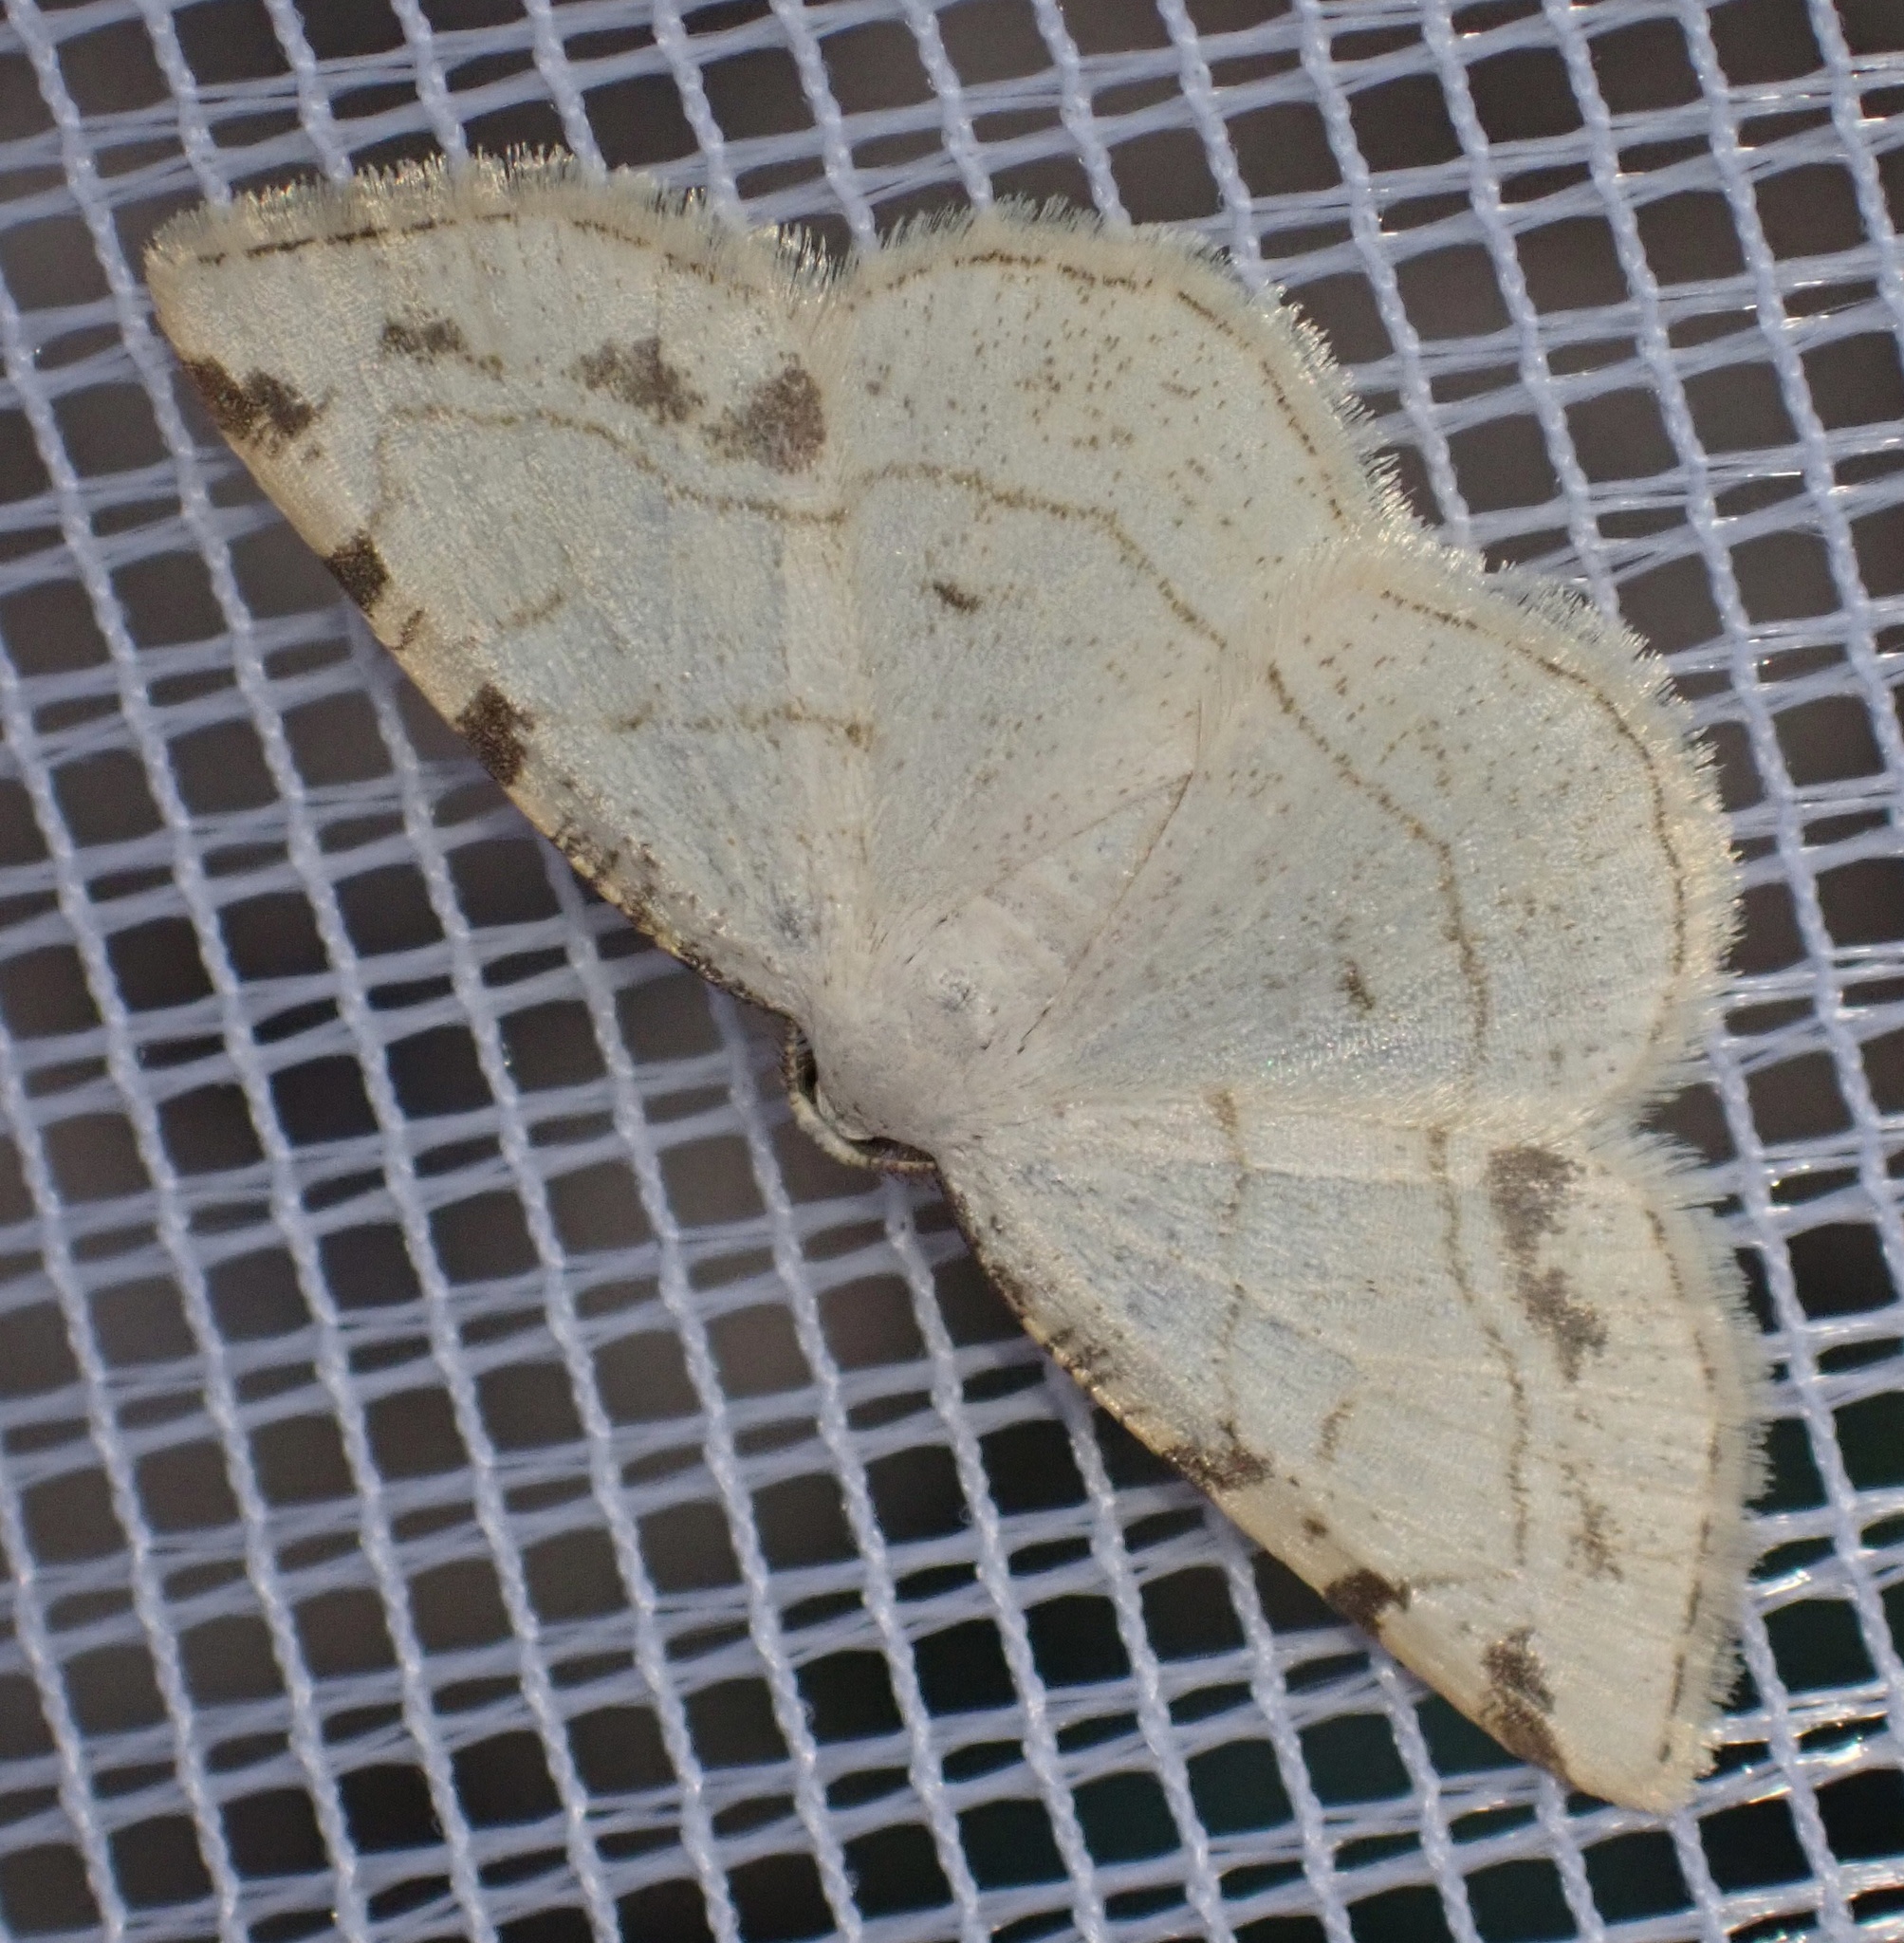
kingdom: Animalia
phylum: Arthropoda
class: Insecta
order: Lepidoptera
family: Geometridae
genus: Stegania
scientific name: Stegania trimaculata
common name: Dorset cream wave
